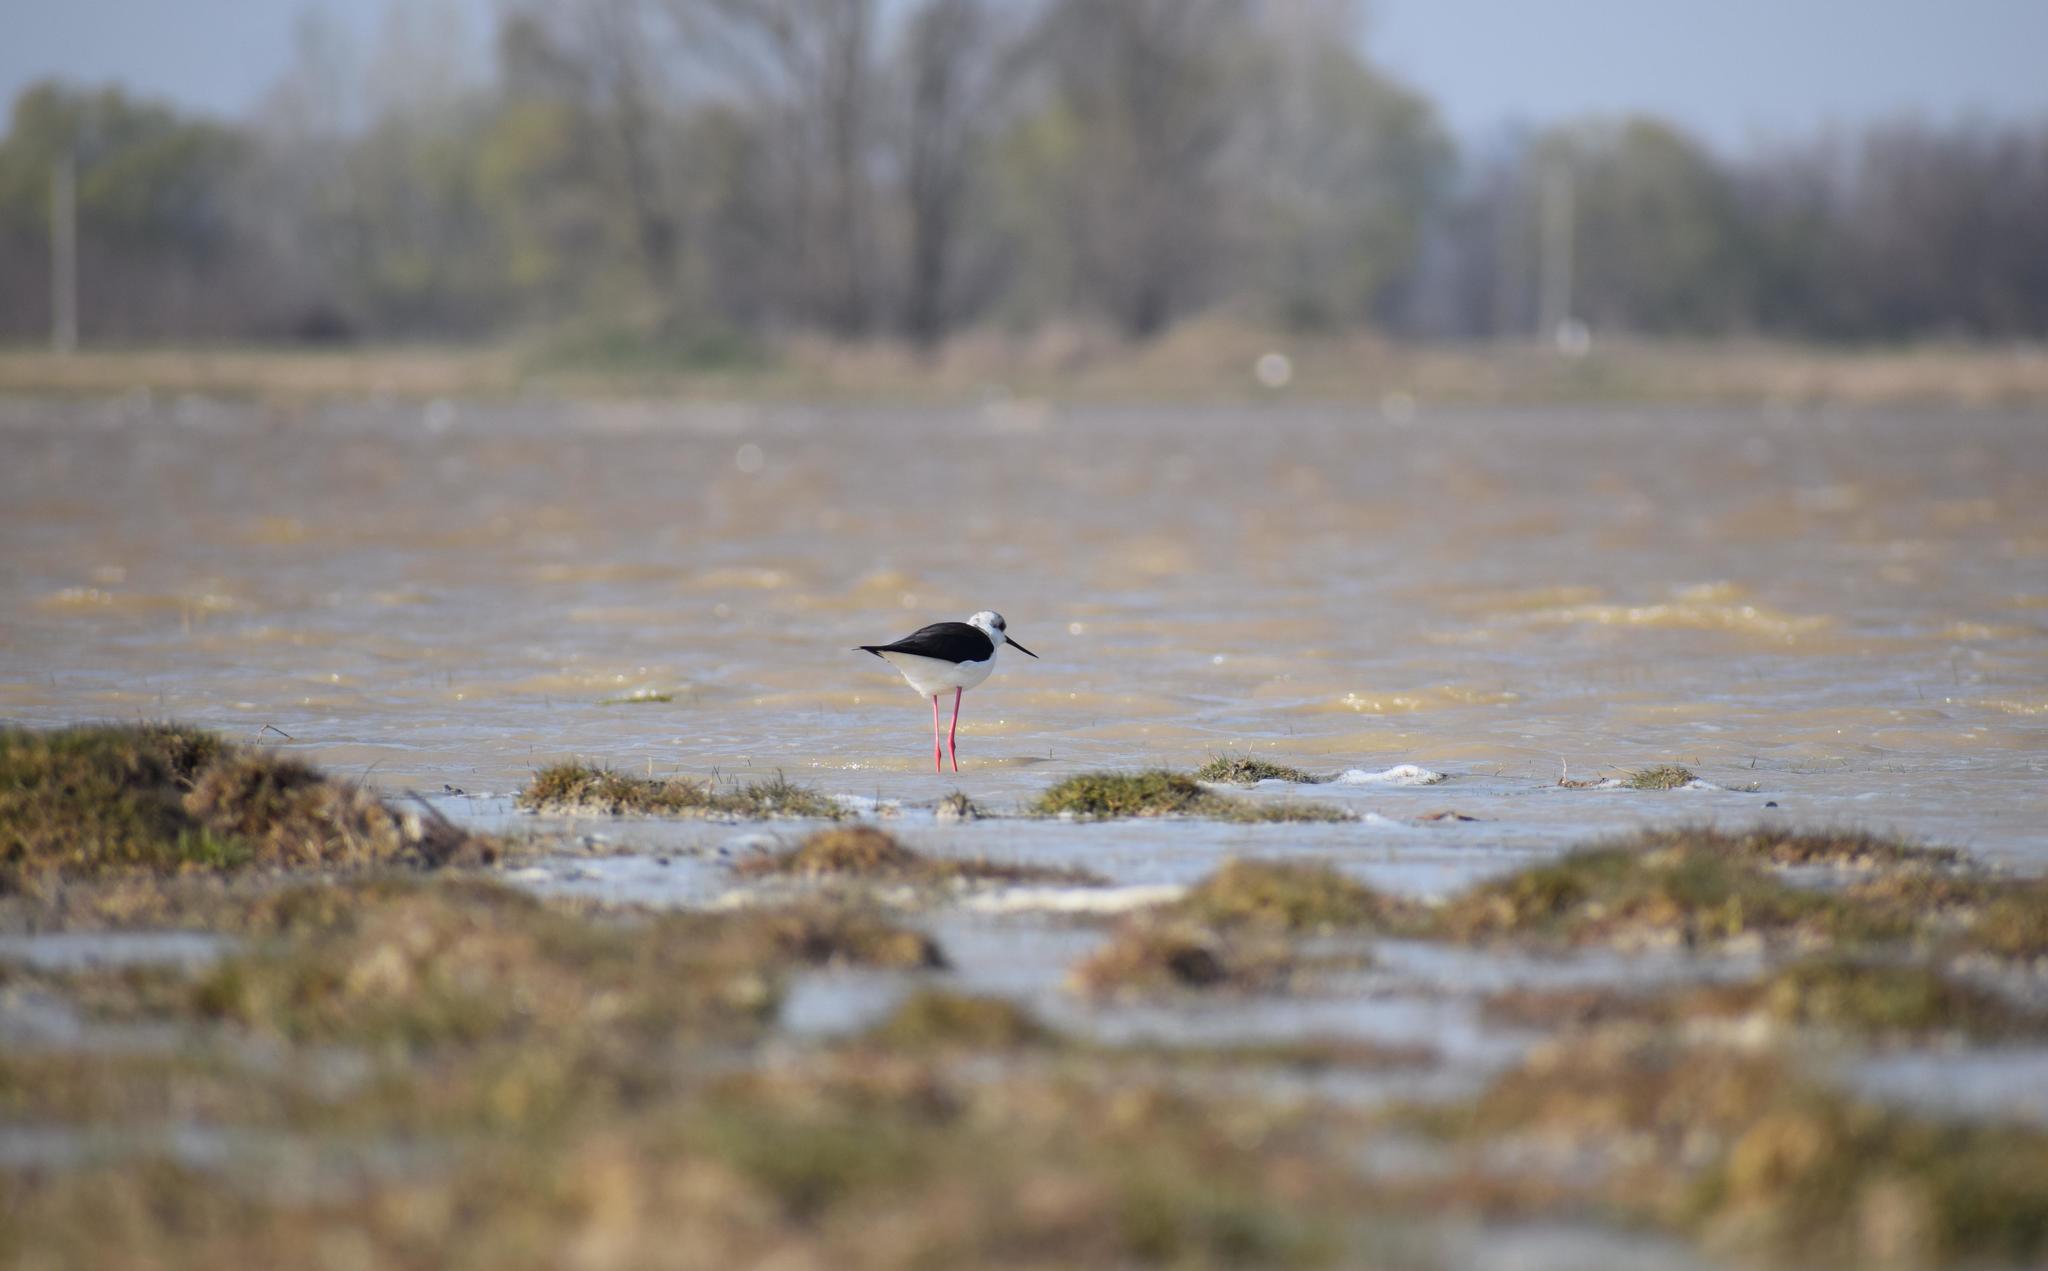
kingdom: Animalia
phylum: Chordata
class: Aves
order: Charadriiformes
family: Recurvirostridae
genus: Himantopus
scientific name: Himantopus himantopus
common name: Black-winged stilt
